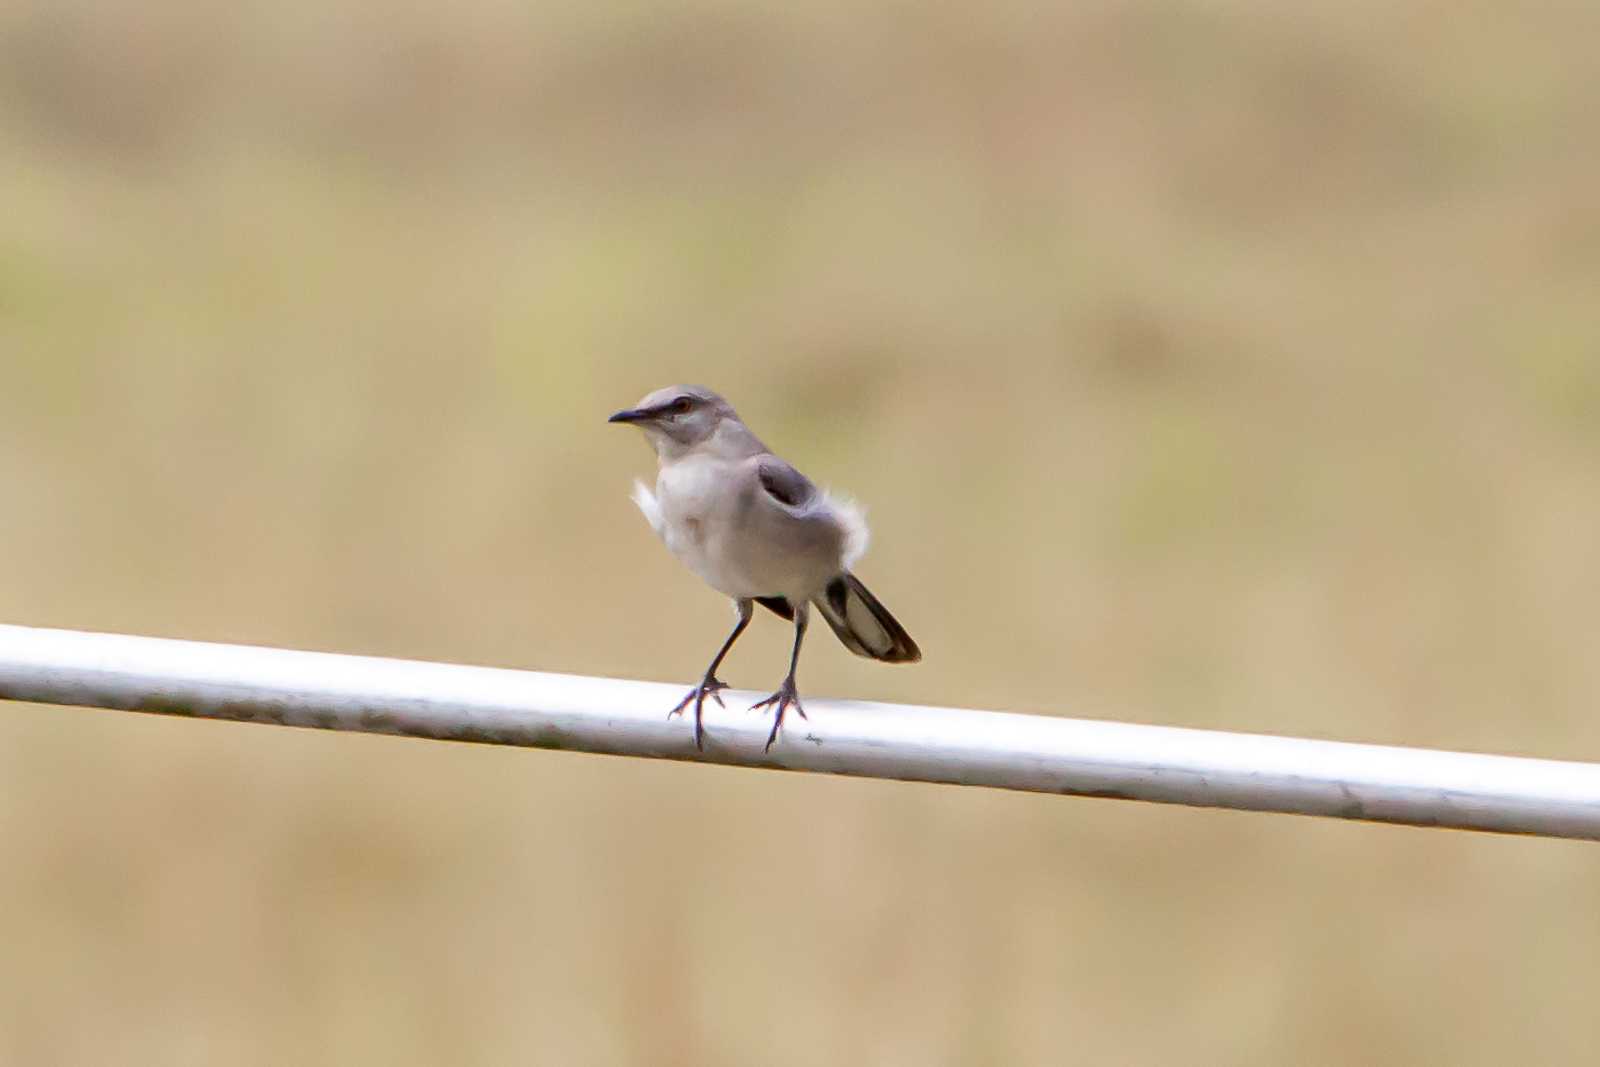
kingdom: Animalia
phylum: Chordata
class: Aves
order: Passeriformes
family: Mimidae
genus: Mimus
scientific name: Mimus polyglottos
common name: Northern mockingbird
